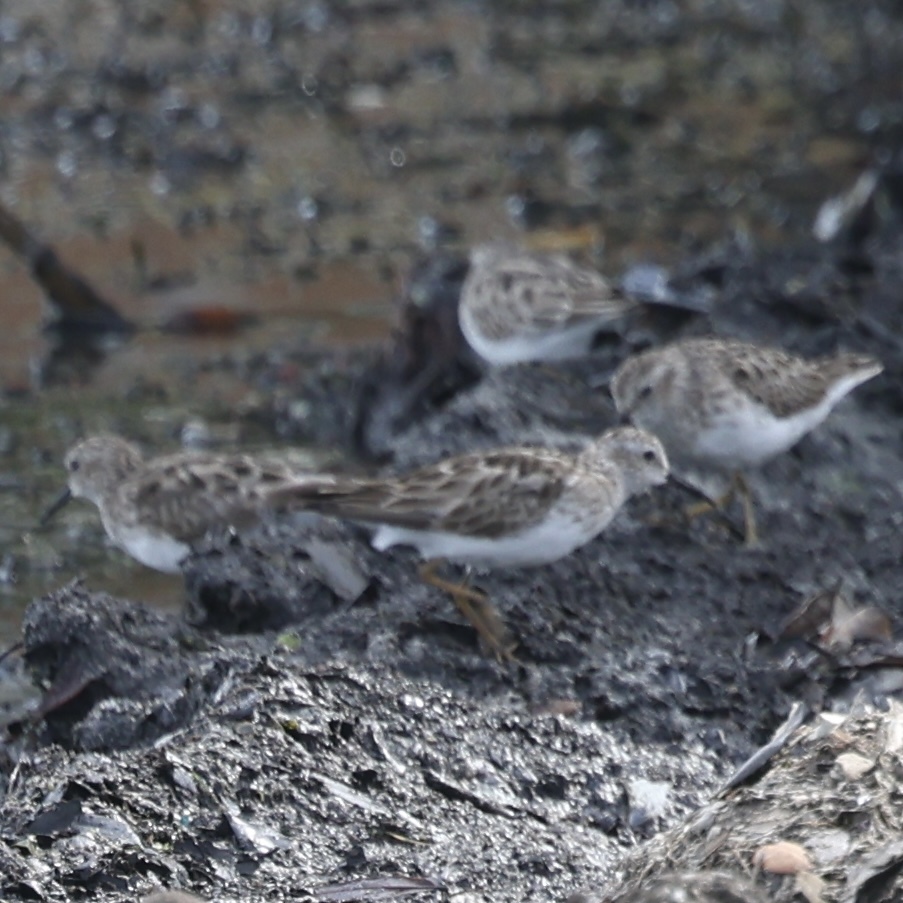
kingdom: Animalia
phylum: Chordata
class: Aves
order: Charadriiformes
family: Scolopacidae
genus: Calidris
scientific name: Calidris minutilla
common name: Least sandpiper
